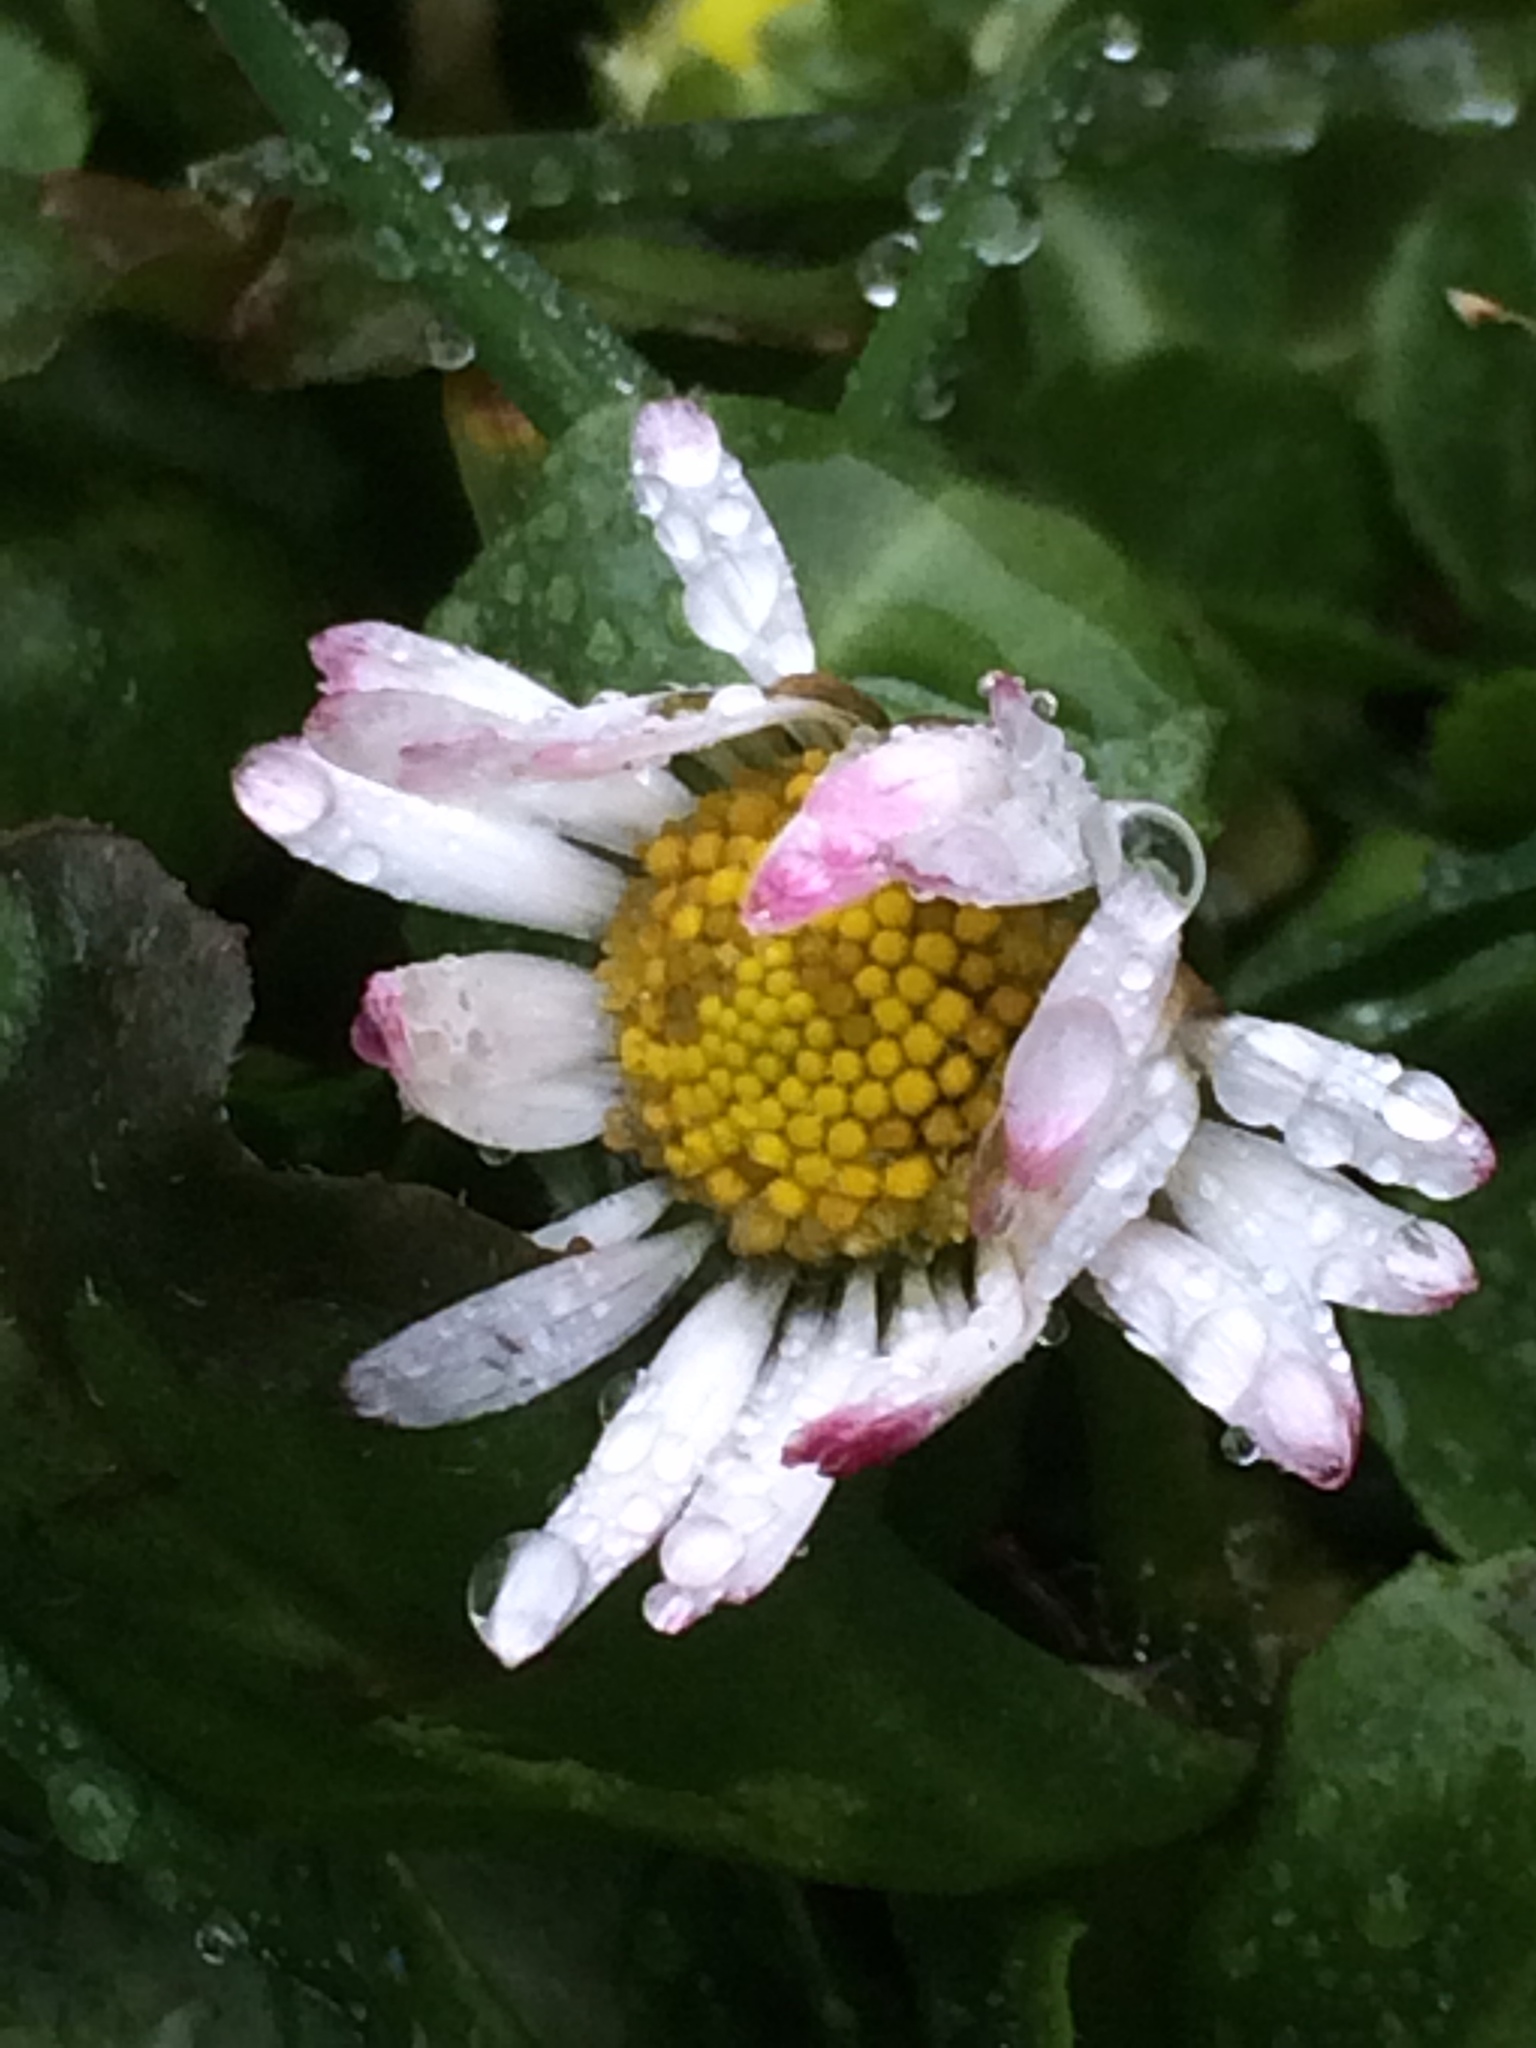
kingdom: Plantae
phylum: Tracheophyta
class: Magnoliopsida
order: Asterales
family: Asteraceae
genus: Bellis
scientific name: Bellis perennis
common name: Lawndaisy
